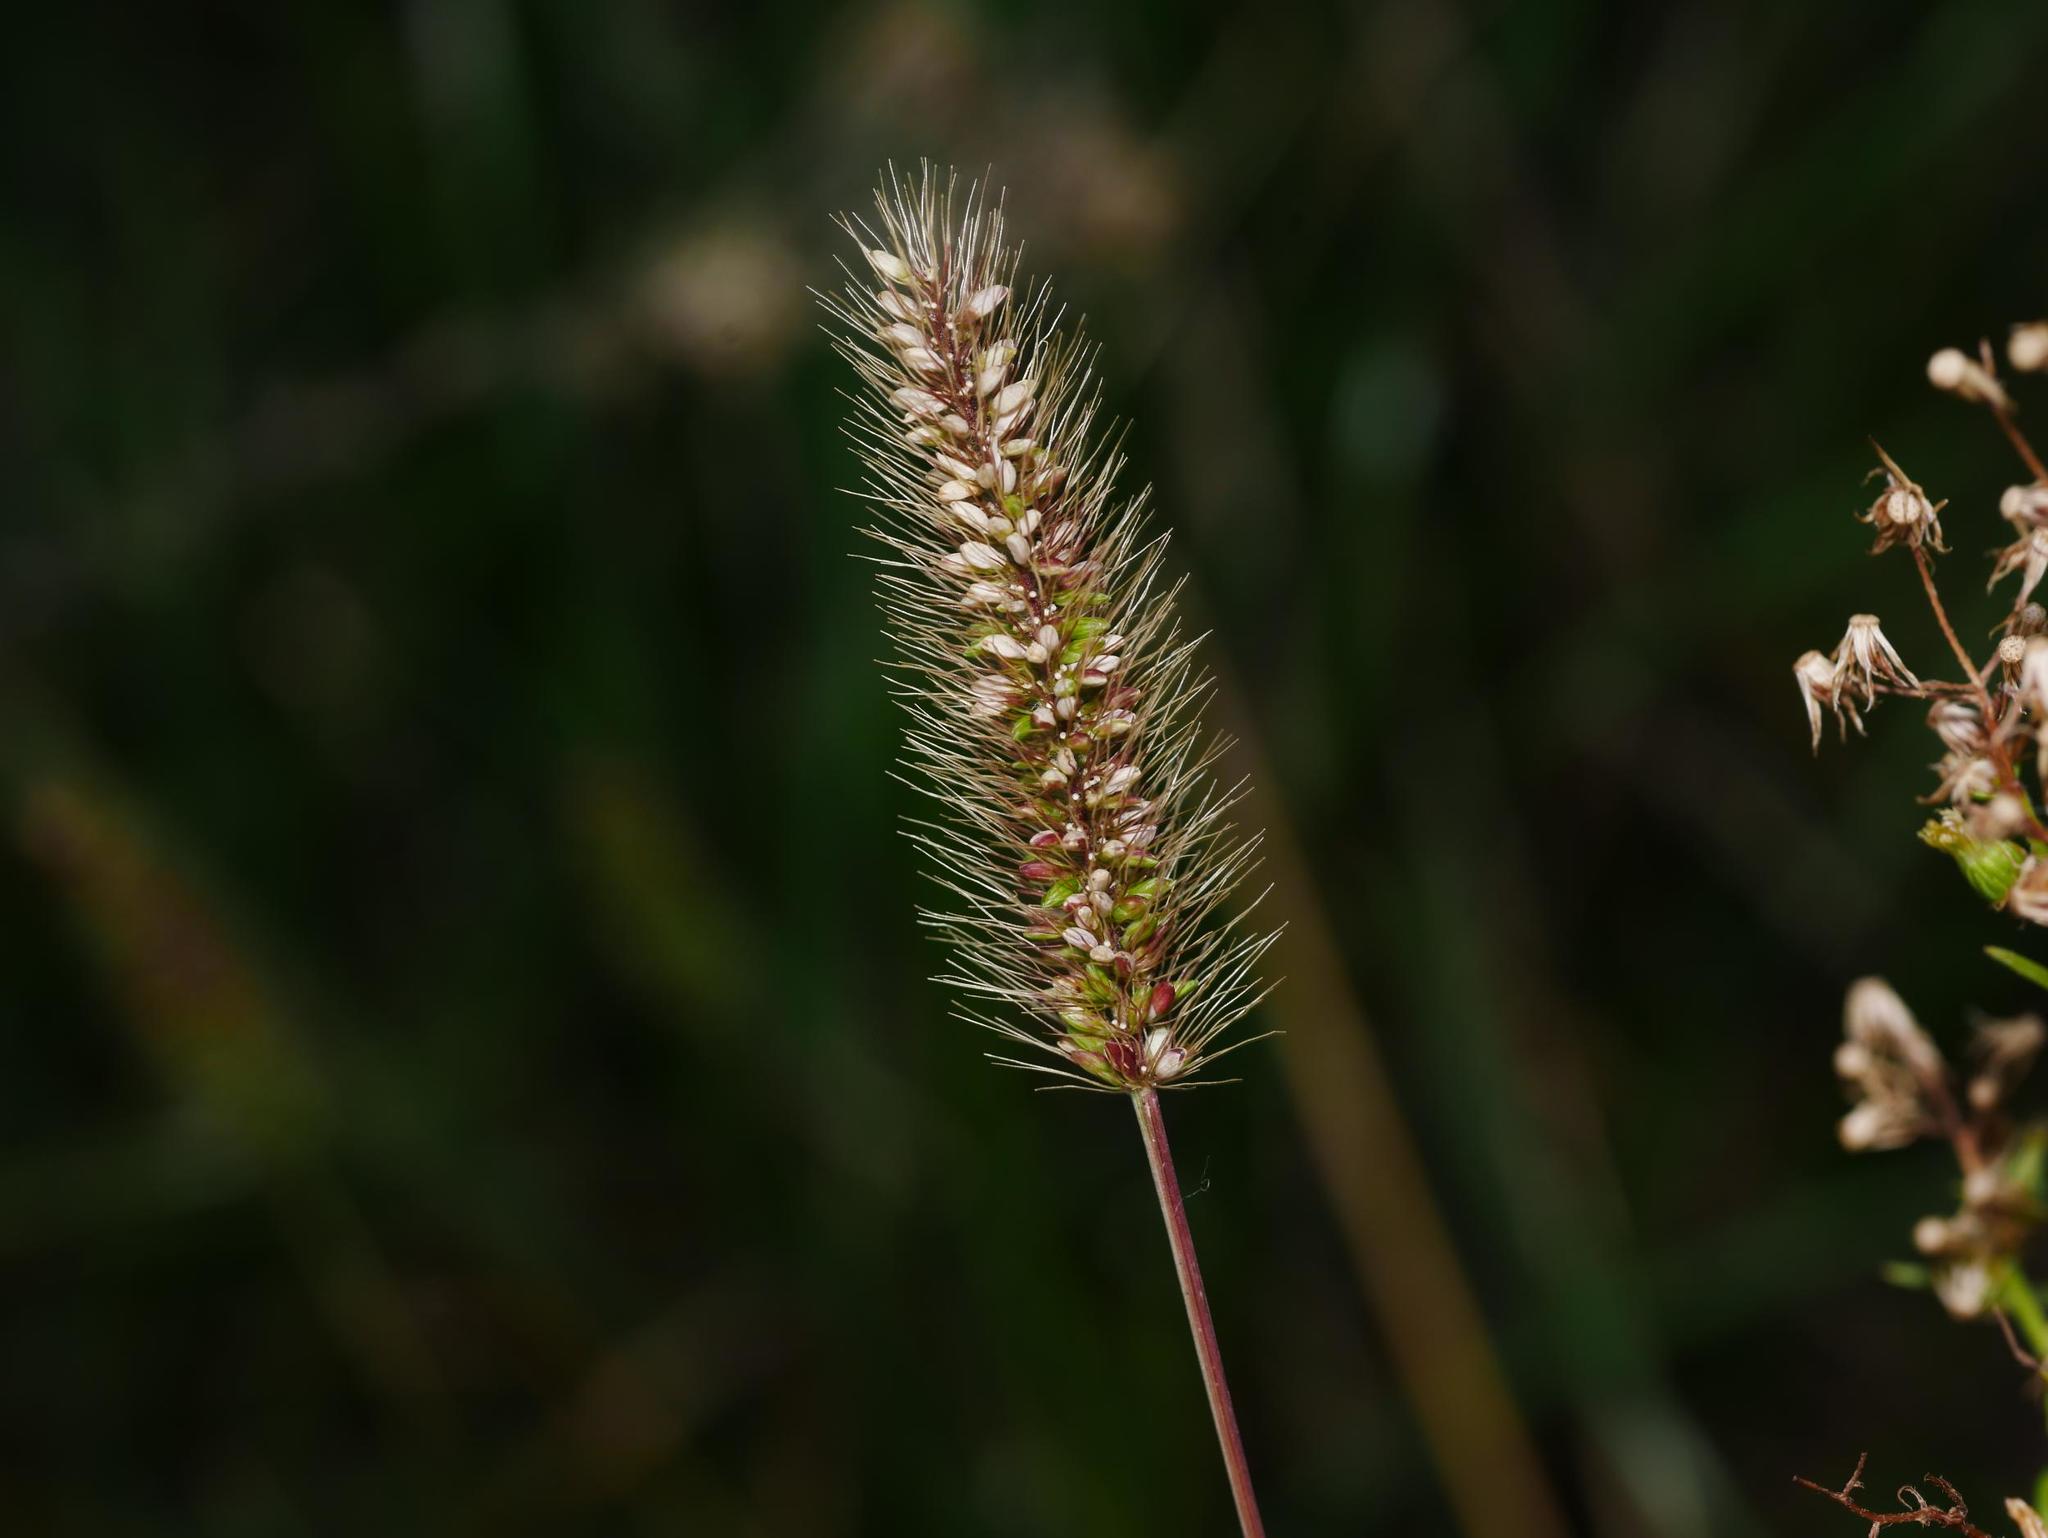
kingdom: Plantae
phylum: Tracheophyta
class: Liliopsida
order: Poales
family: Poaceae
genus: Setaria
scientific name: Setaria viridis
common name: Green bristlegrass
